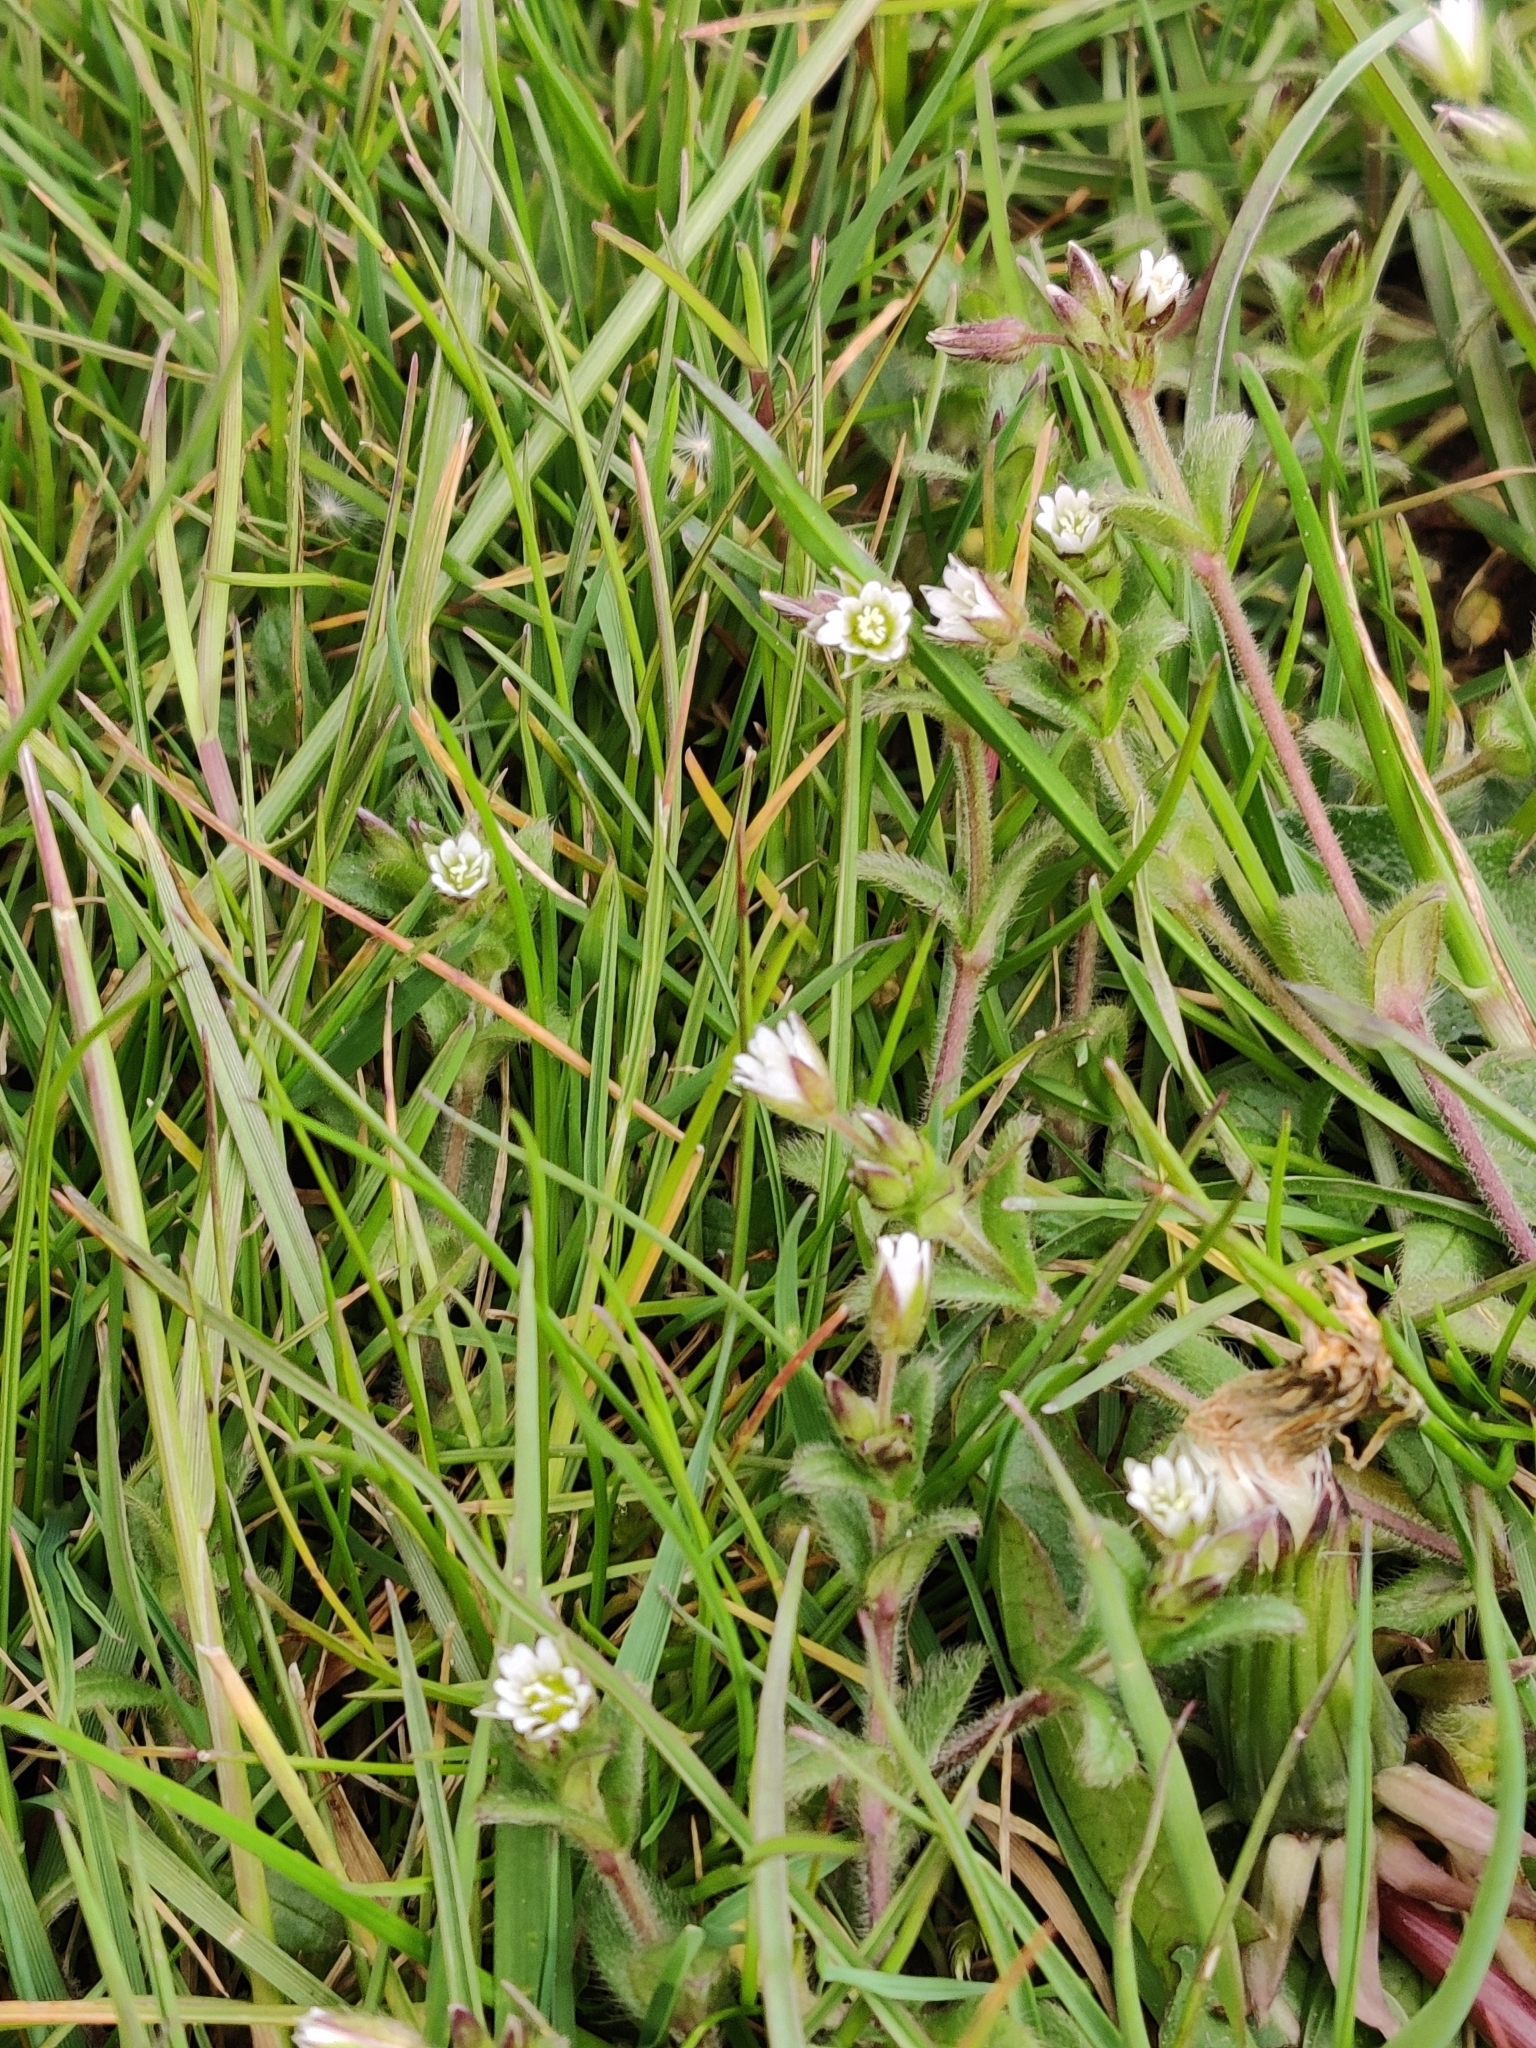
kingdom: Plantae
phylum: Tracheophyta
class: Magnoliopsida
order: Caryophyllales
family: Caryophyllaceae
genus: Cerastium
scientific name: Cerastium fontanum
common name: Common mouse-ear
